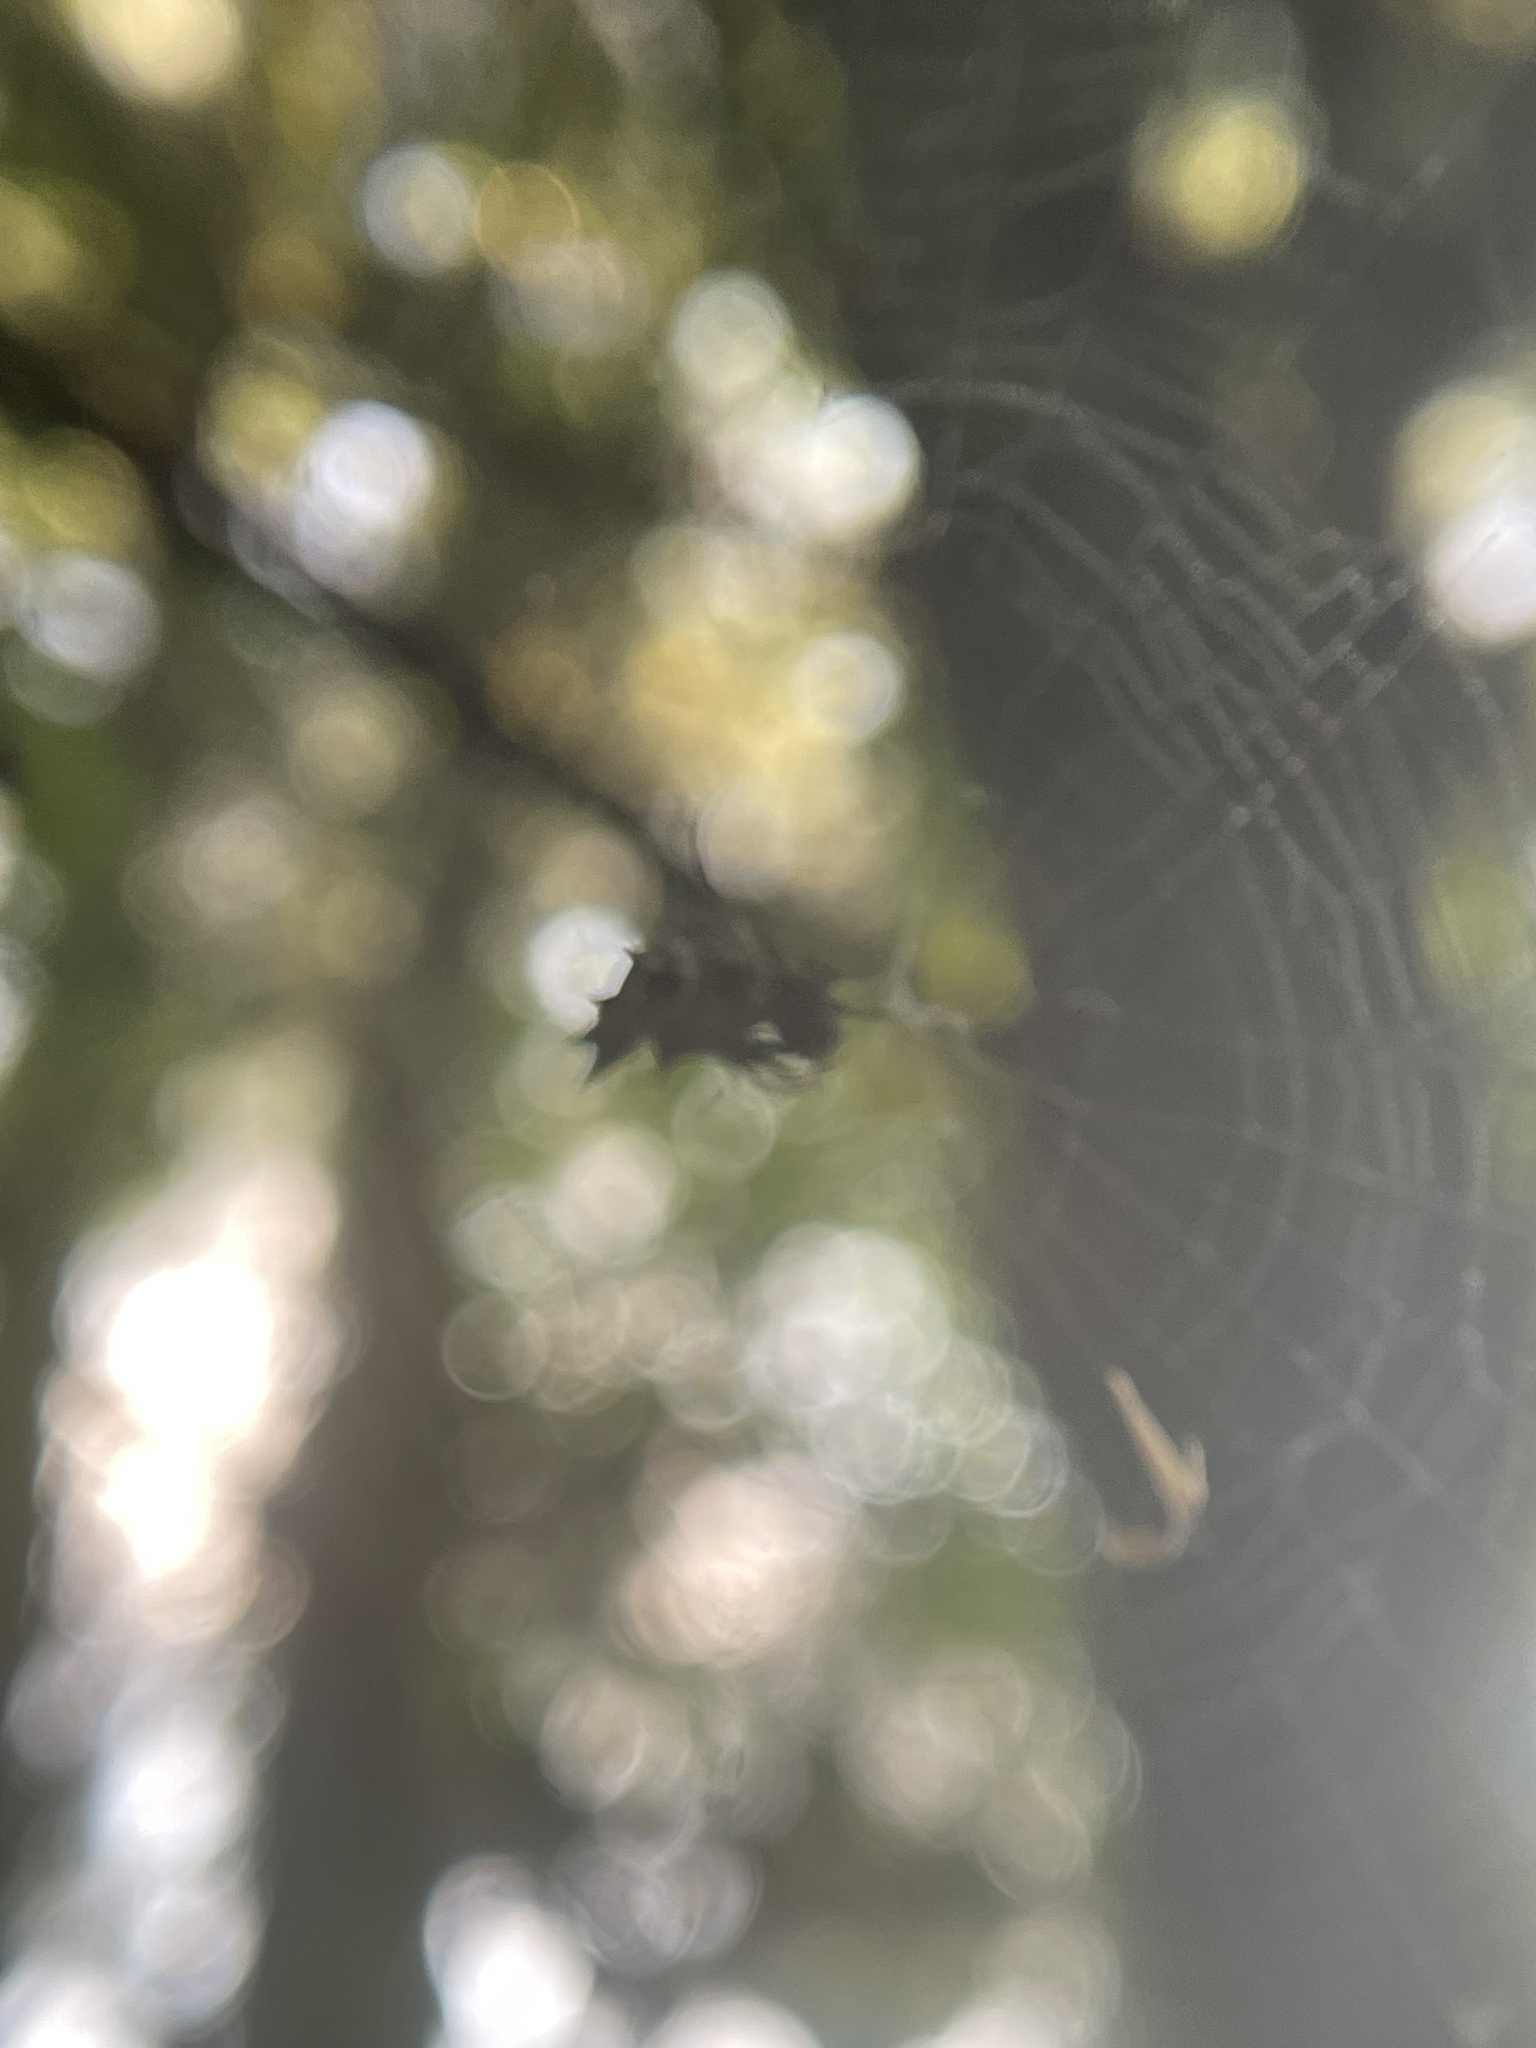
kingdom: Animalia
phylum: Arthropoda
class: Arachnida
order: Araneae
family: Araneidae
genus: Micrathena
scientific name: Micrathena gracilis
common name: Orb weavers
